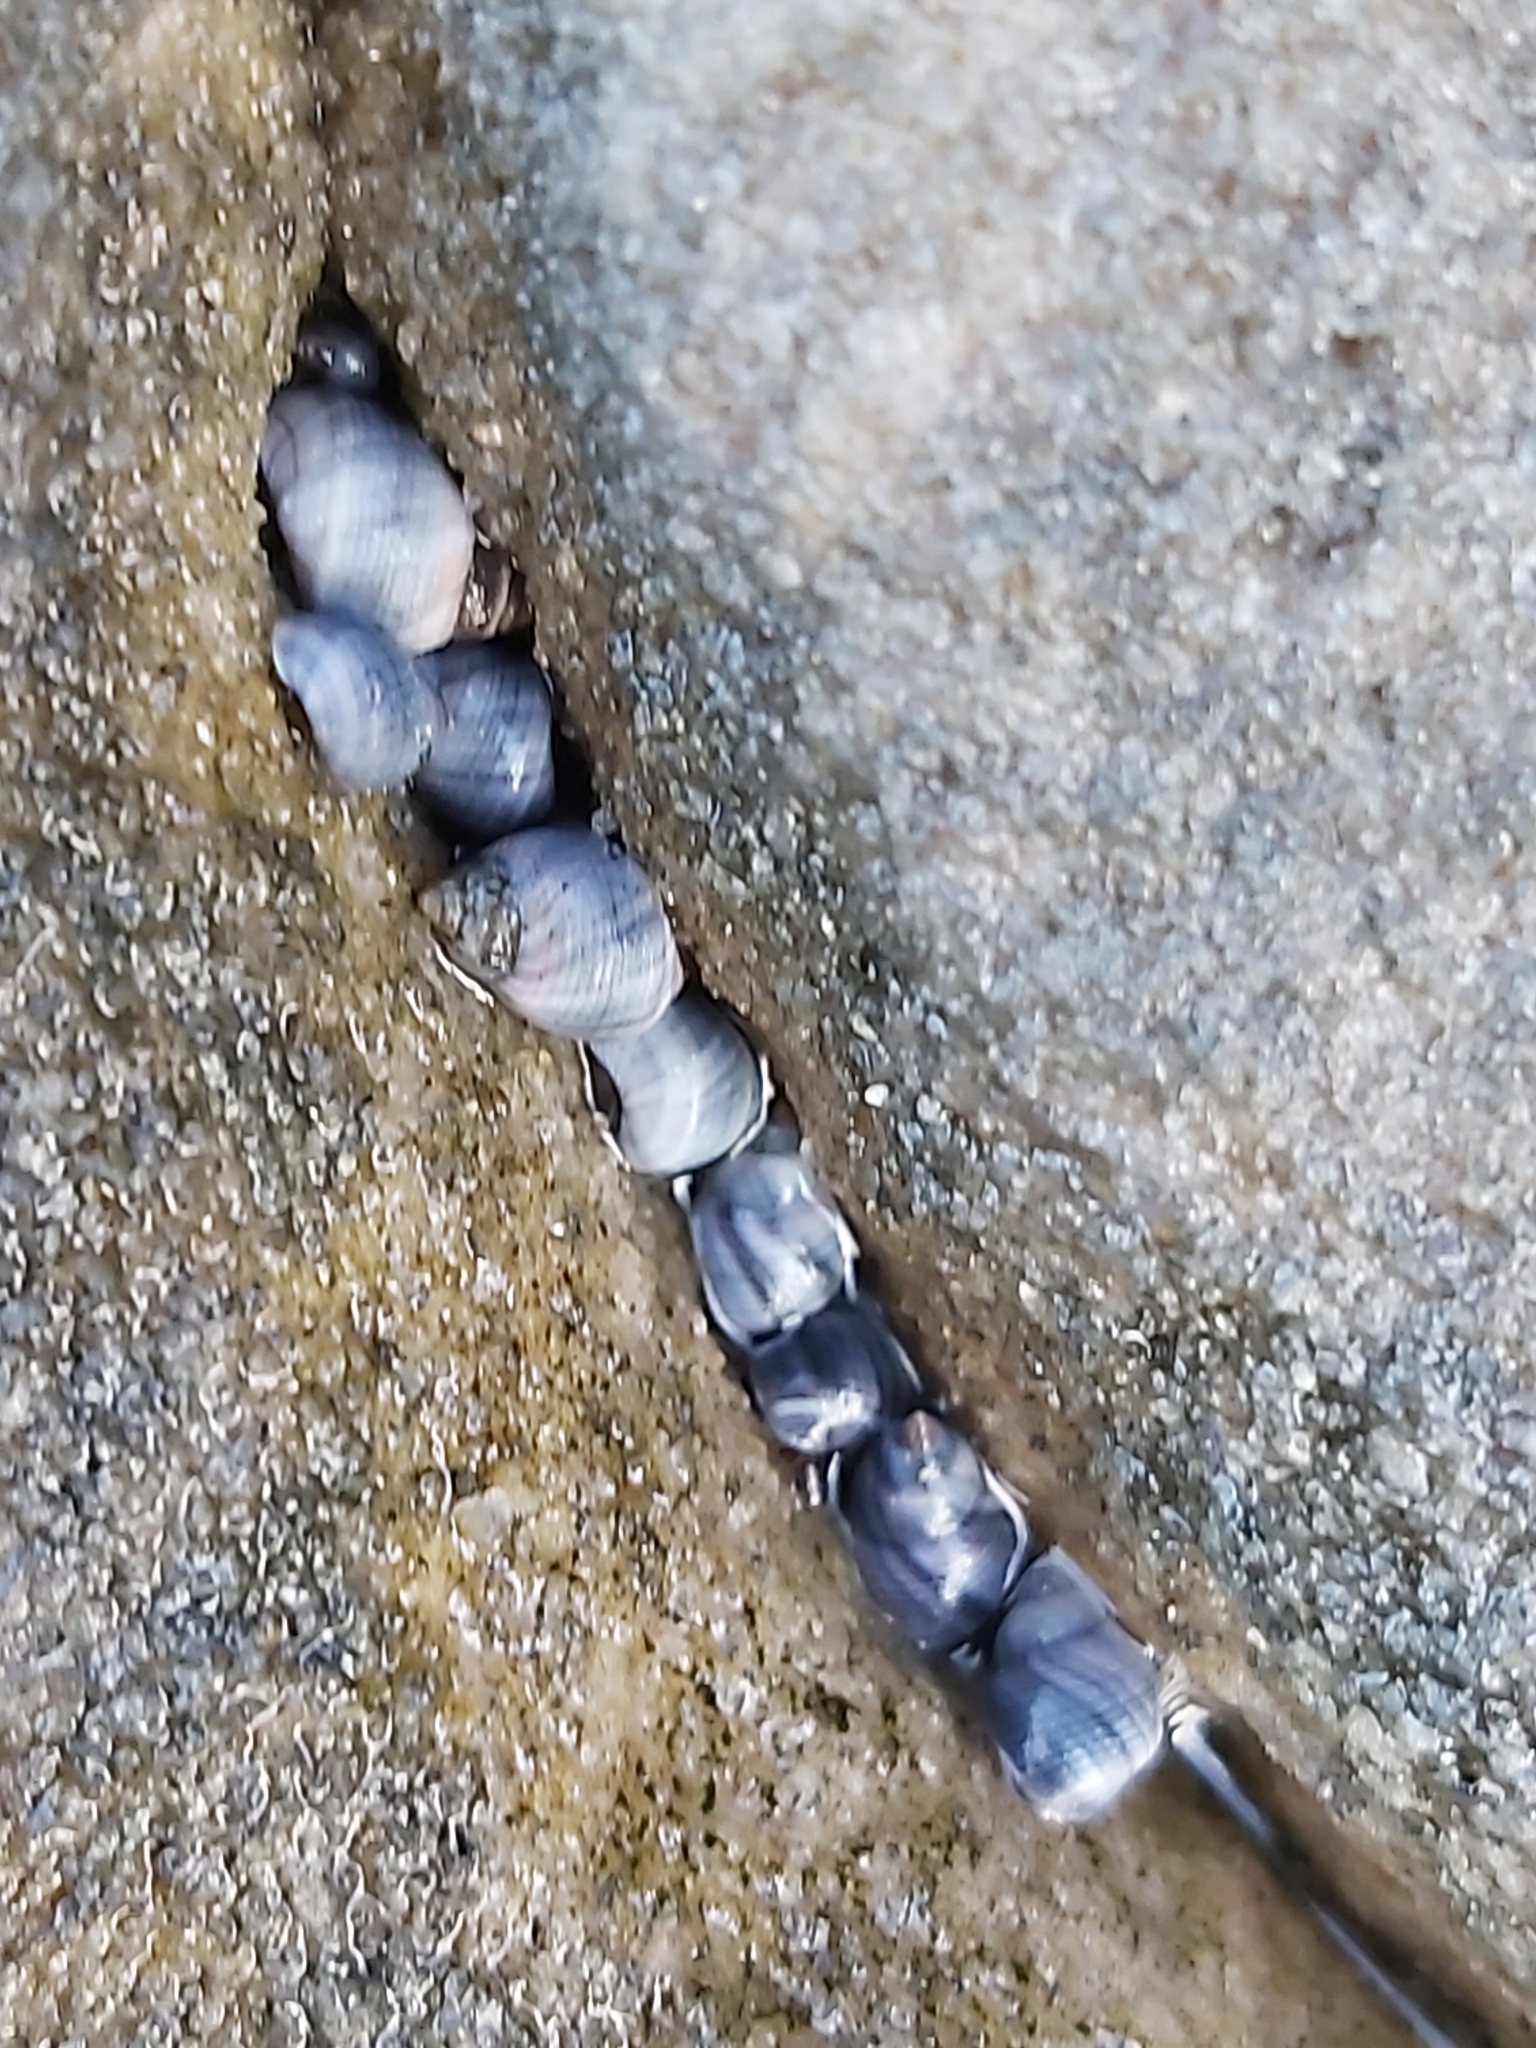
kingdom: Animalia
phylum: Mollusca
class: Gastropoda
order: Littorinimorpha
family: Littorinidae
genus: Austrolittorina
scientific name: Austrolittorina unifasciata
